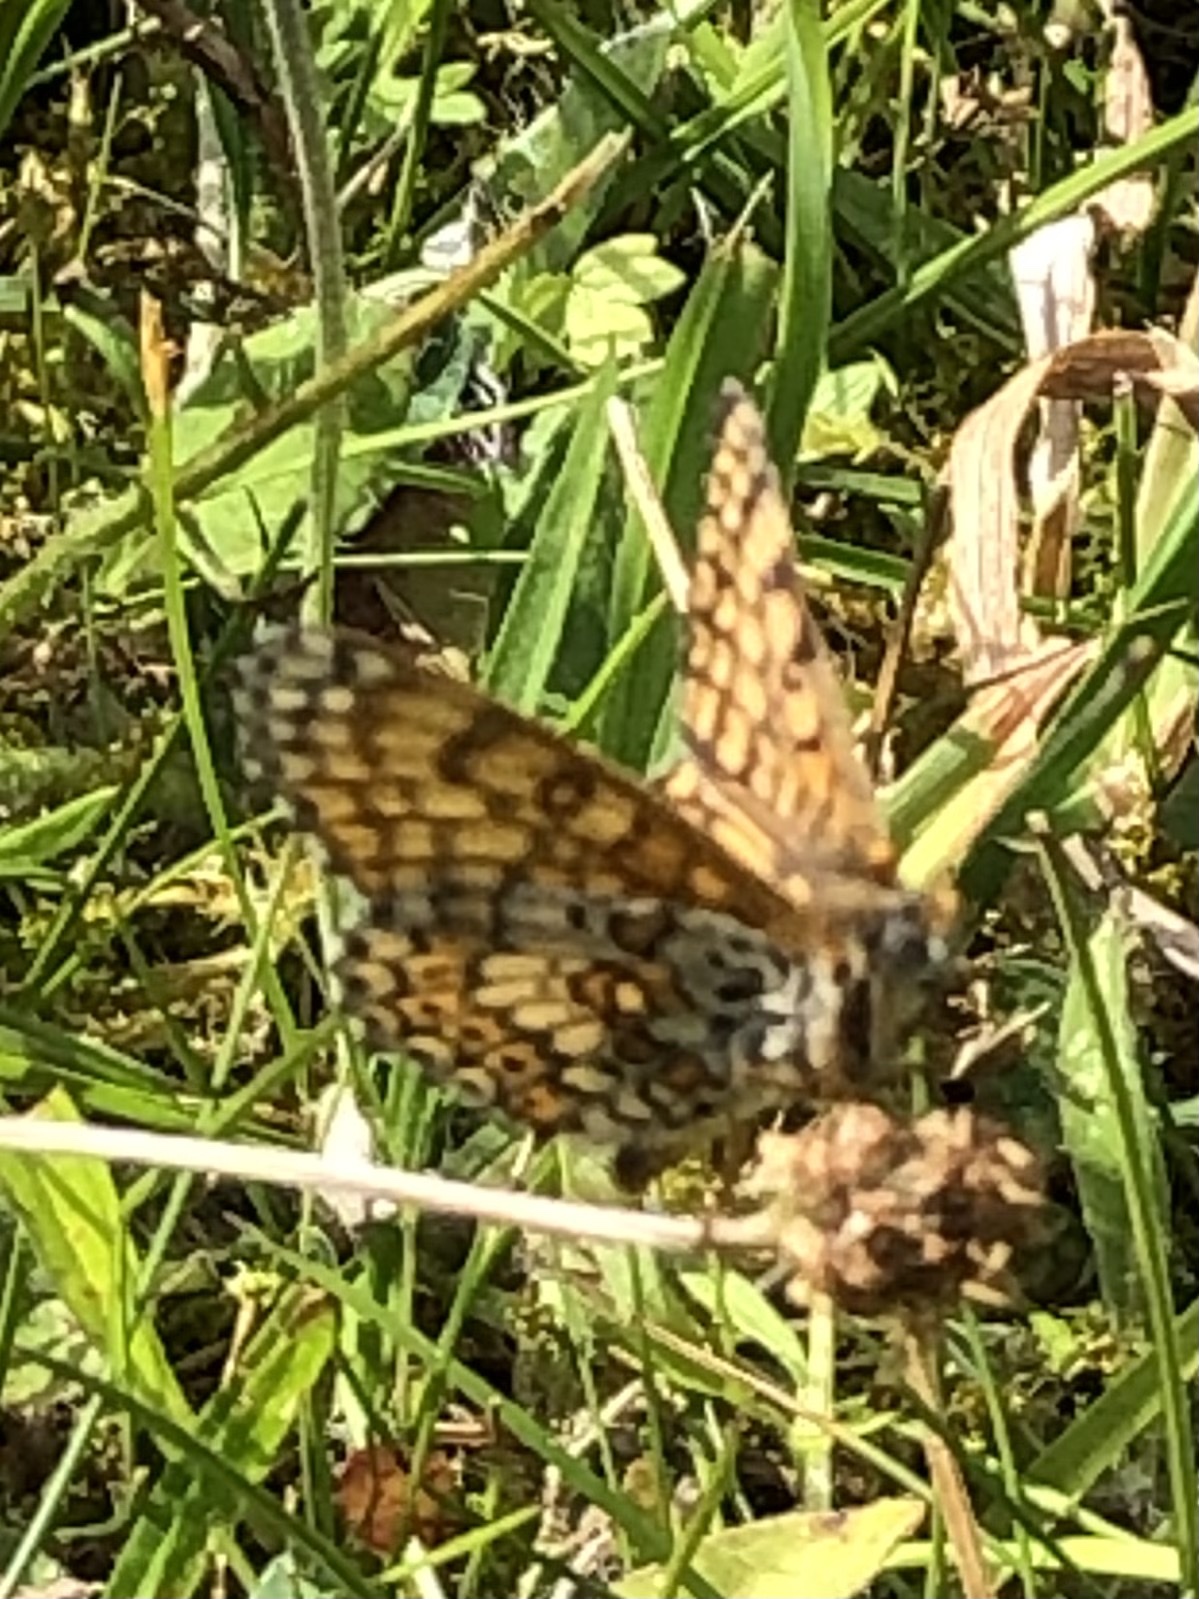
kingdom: Animalia
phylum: Arthropoda
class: Insecta
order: Lepidoptera
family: Nymphalidae
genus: Melitaea
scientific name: Melitaea cinxia
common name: Glanville fritillary
